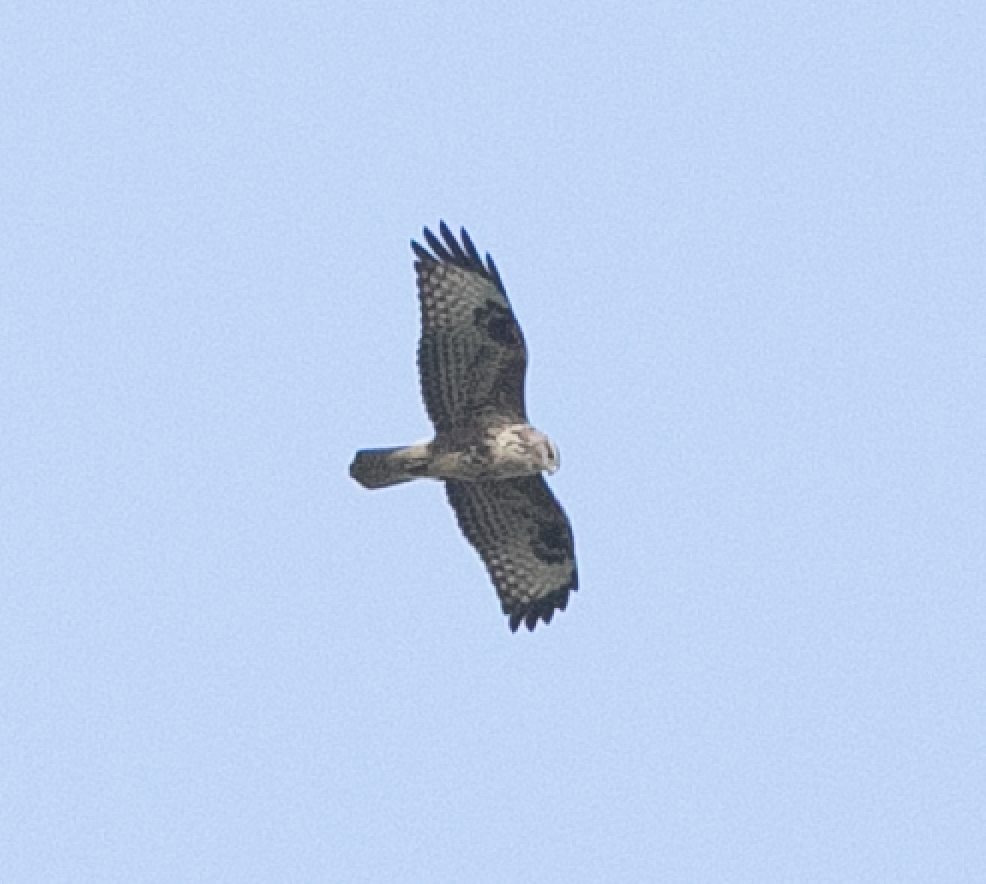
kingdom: Animalia
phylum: Chordata
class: Aves
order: Accipitriformes
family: Accipitridae
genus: Buteo
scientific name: Buteo buteo
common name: Common buzzard
